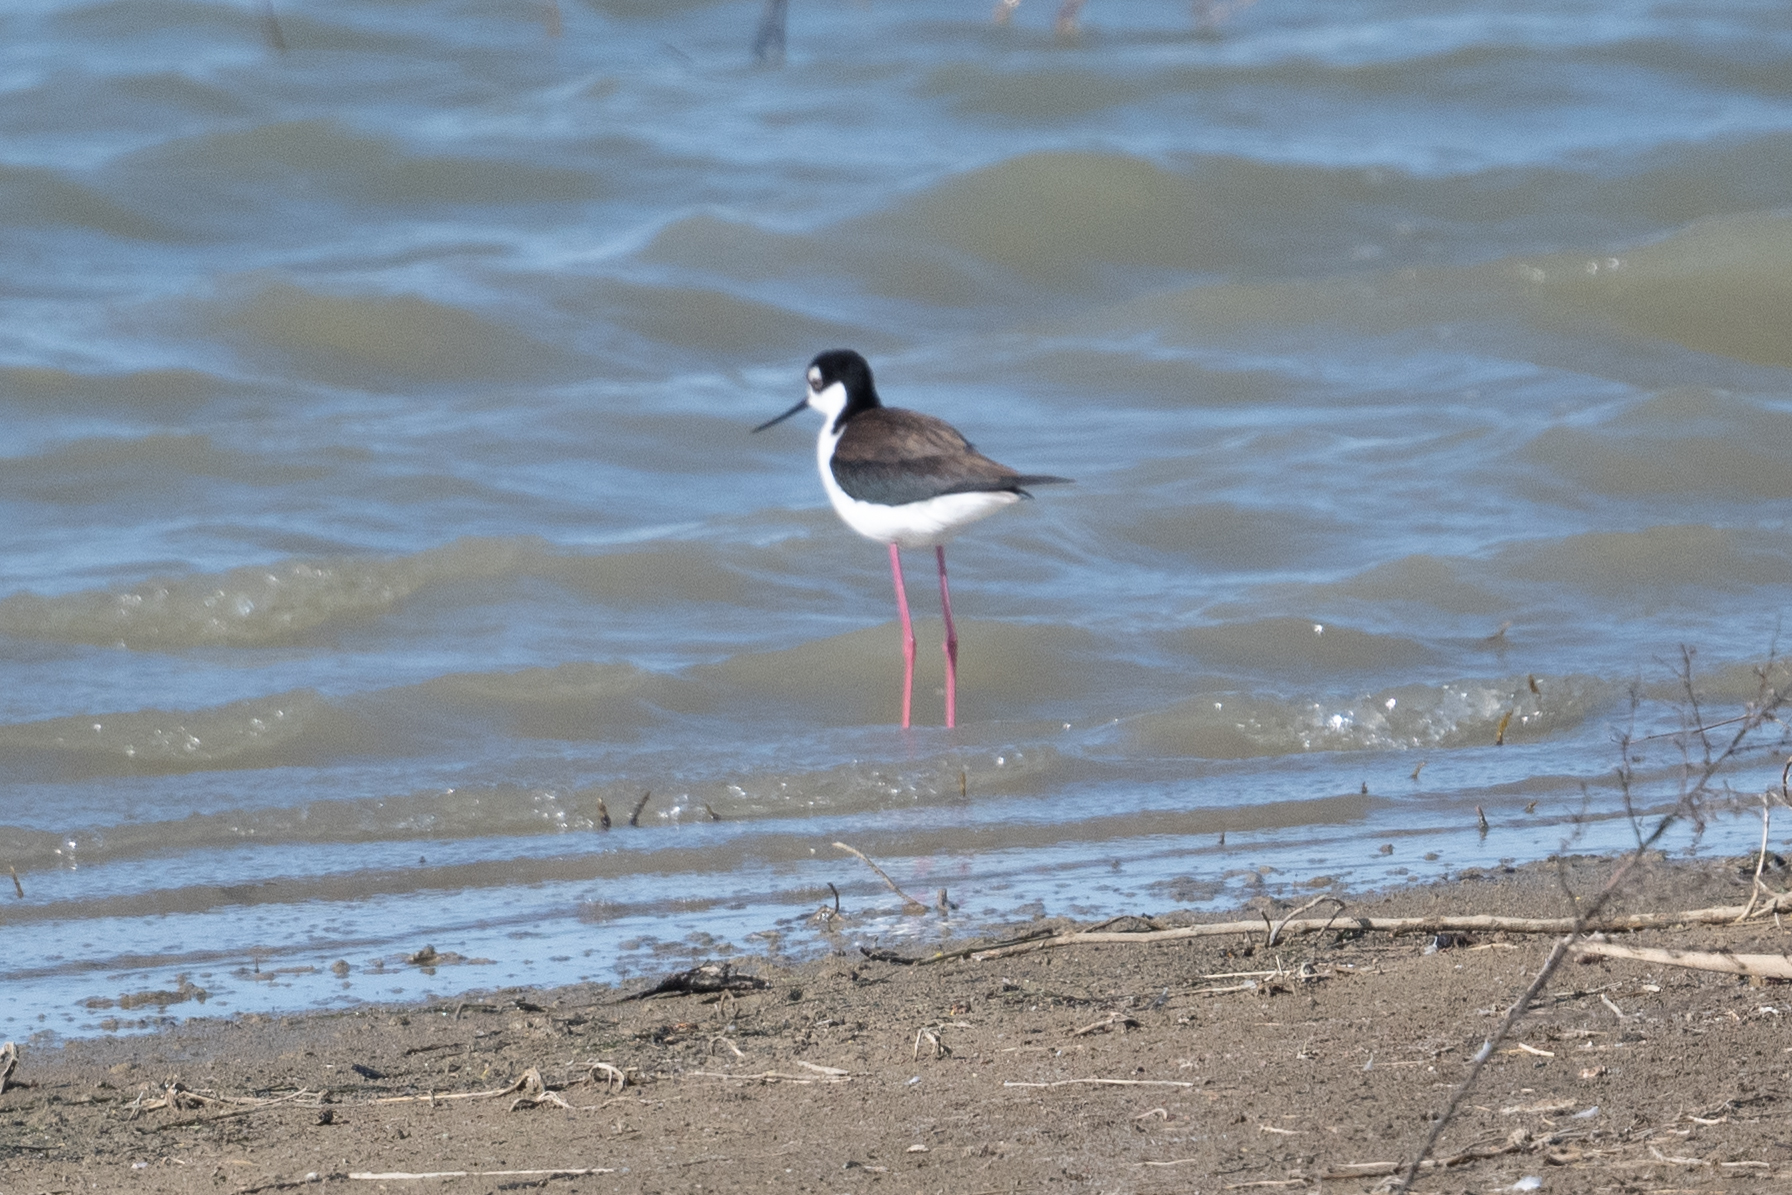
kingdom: Animalia
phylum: Chordata
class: Aves
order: Charadriiformes
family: Recurvirostridae
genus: Himantopus
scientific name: Himantopus mexicanus
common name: Black-necked stilt
